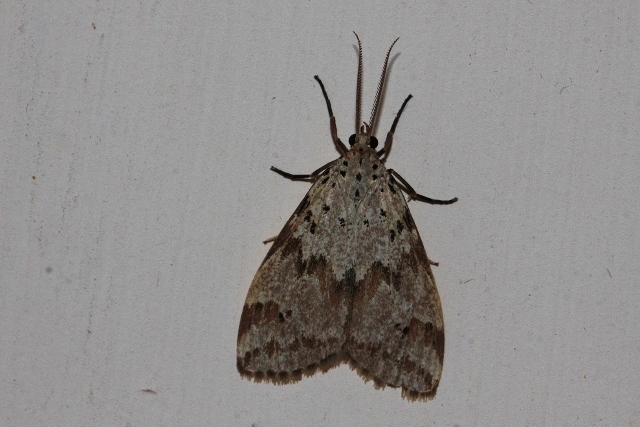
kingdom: Animalia
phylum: Arthropoda
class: Insecta
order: Lepidoptera
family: Erebidae
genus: Galtara
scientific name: Galtara rostrata
